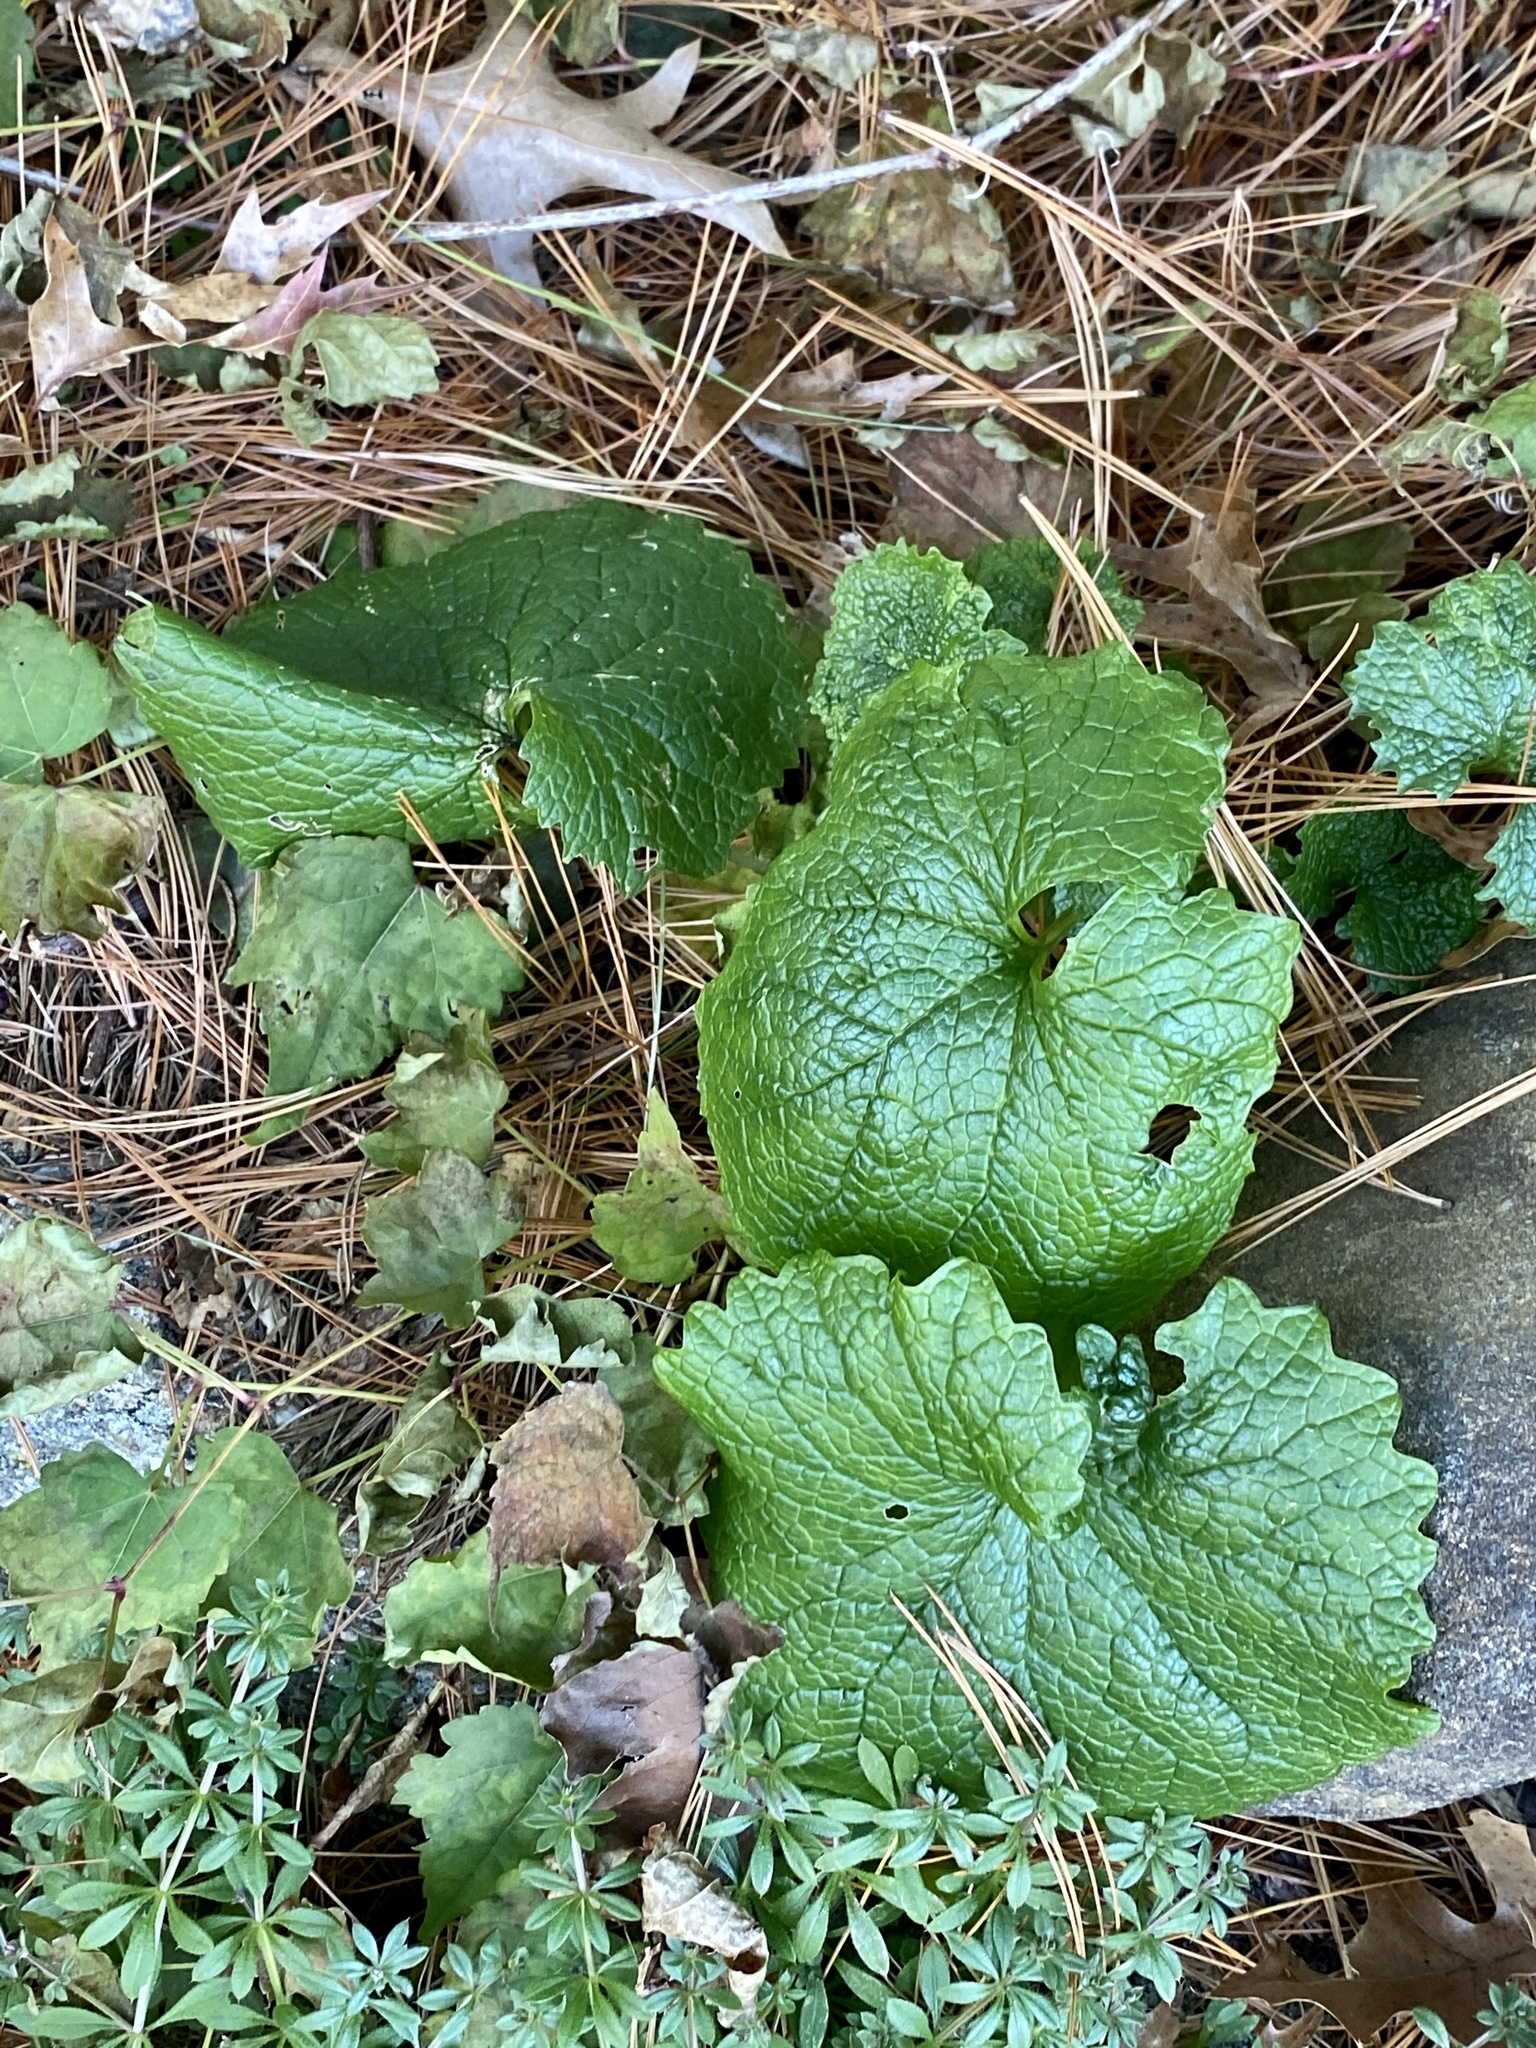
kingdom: Plantae
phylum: Tracheophyta
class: Magnoliopsida
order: Brassicales
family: Brassicaceae
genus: Alliaria
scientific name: Alliaria petiolata
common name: Garlic mustard
